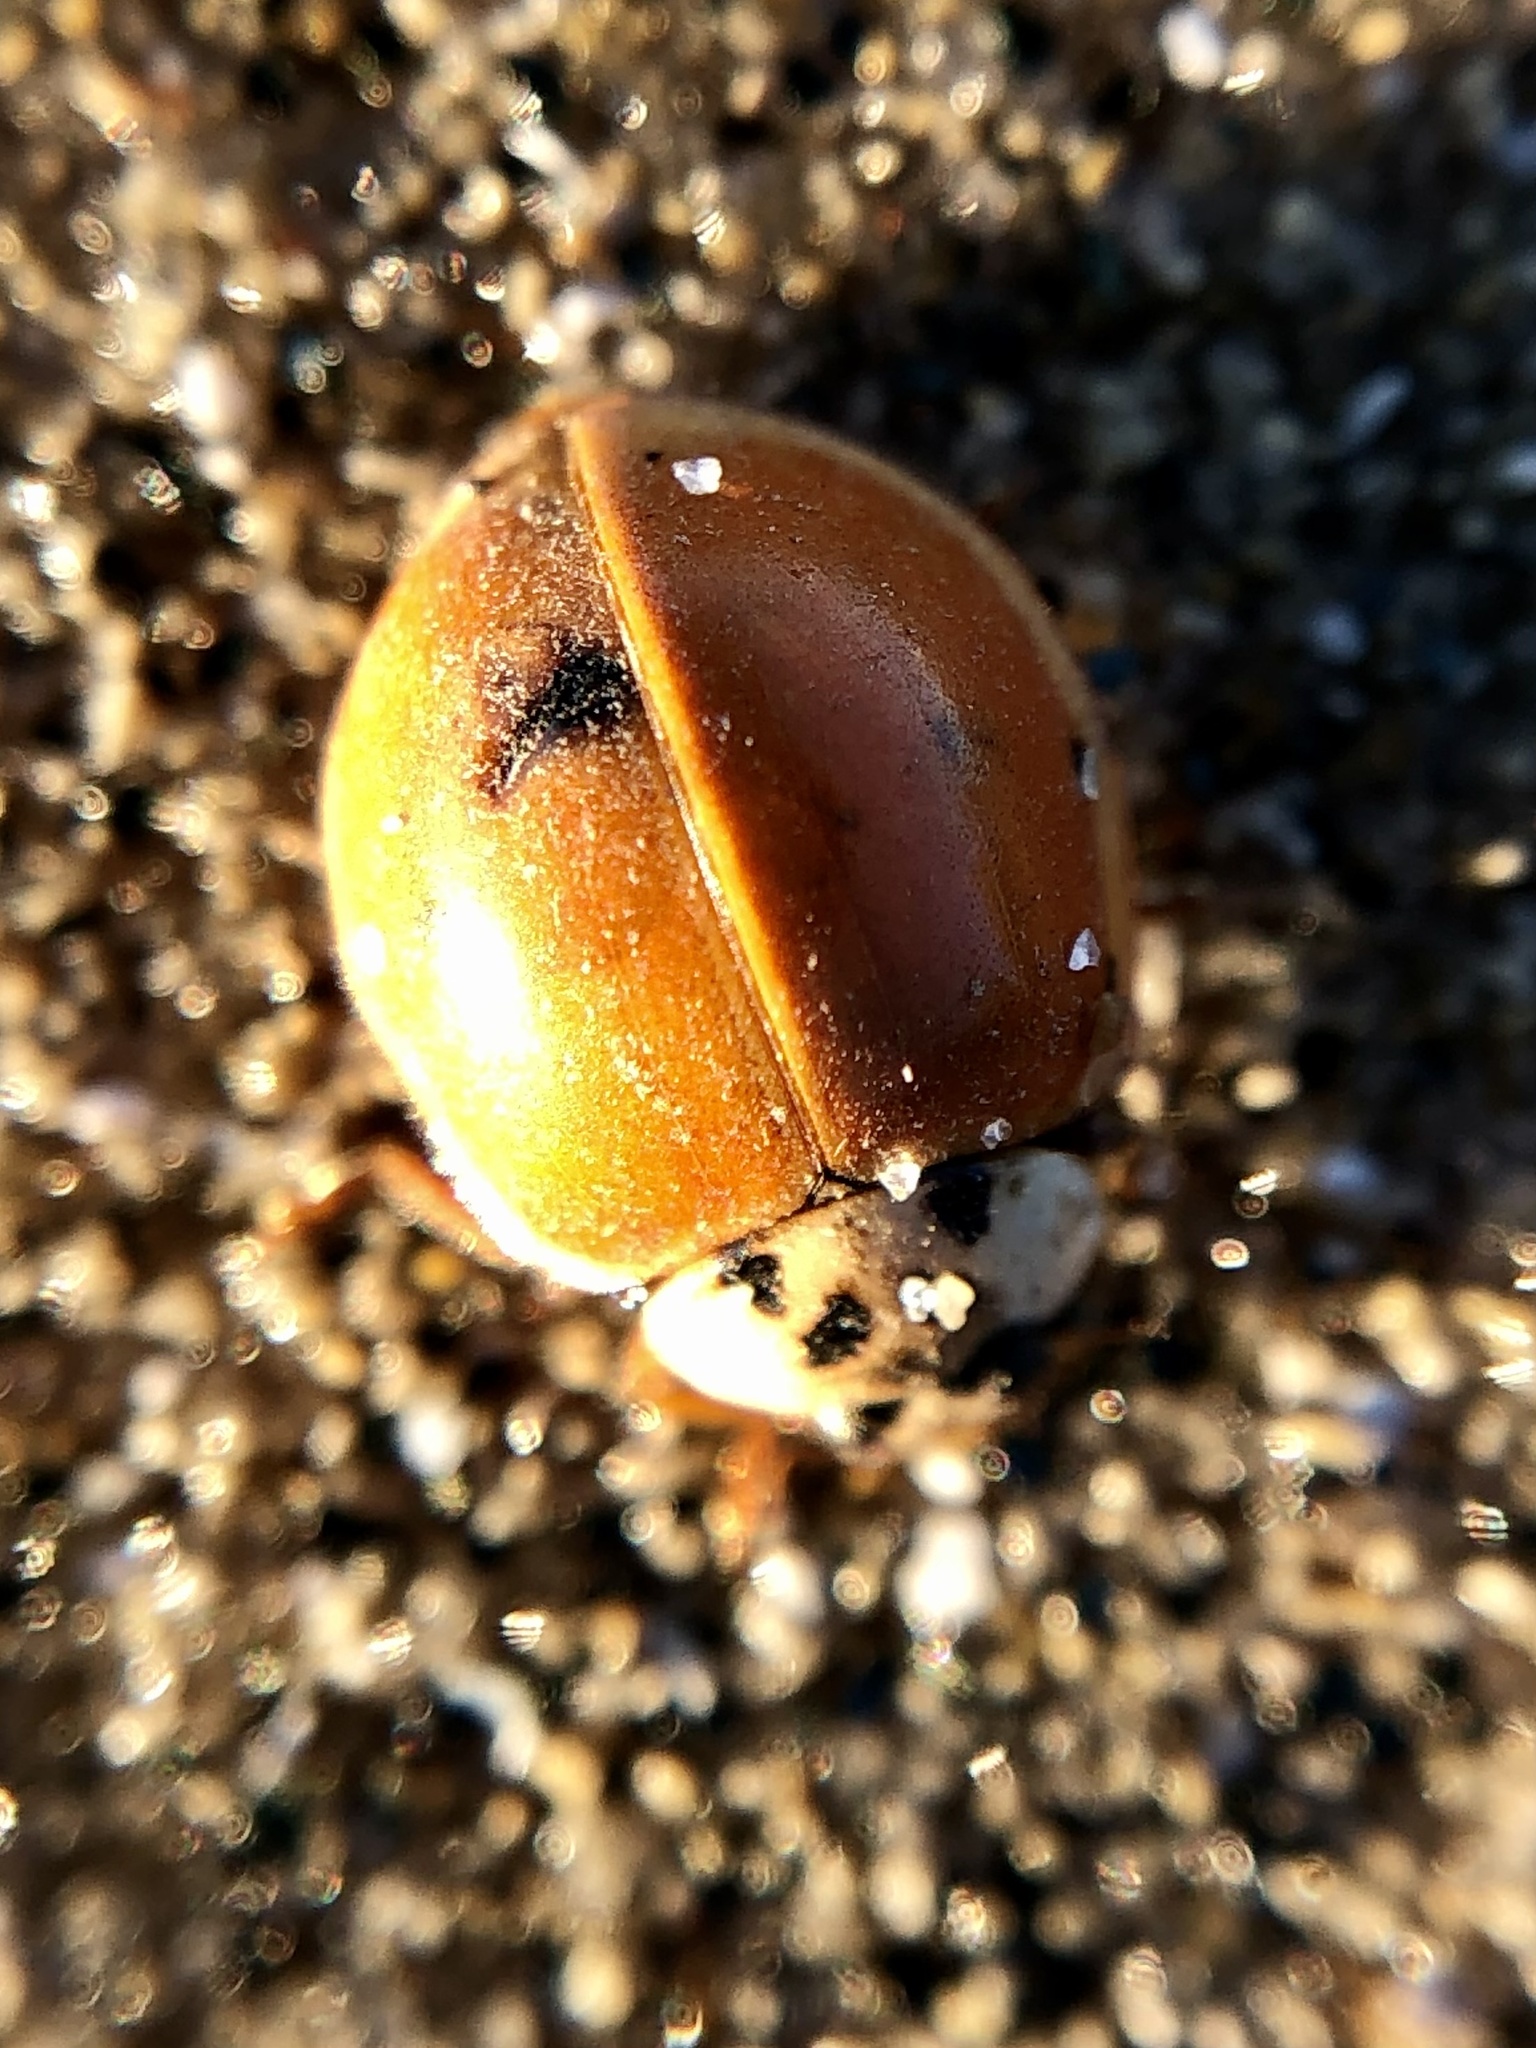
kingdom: Animalia
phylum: Arthropoda
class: Insecta
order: Coleoptera
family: Coccinellidae
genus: Harmonia
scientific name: Harmonia axyridis
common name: Harlequin ladybird
